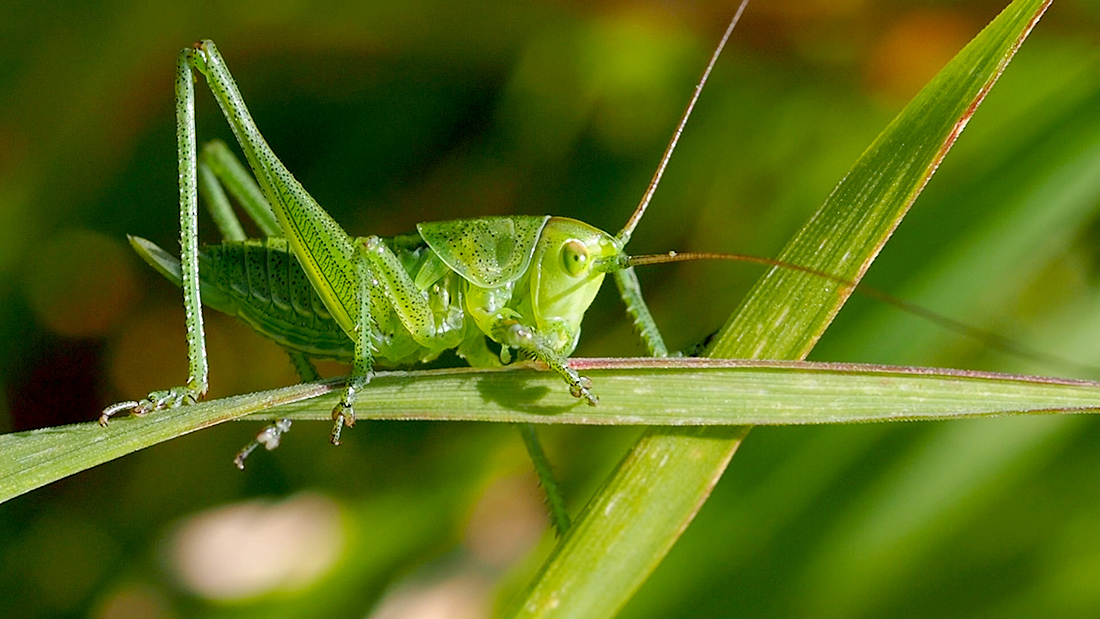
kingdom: Animalia
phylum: Arthropoda
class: Insecta
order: Orthoptera
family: Tettigoniidae
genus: Tettigonia
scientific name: Tettigonia viridissima
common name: Great green bush-cricket
